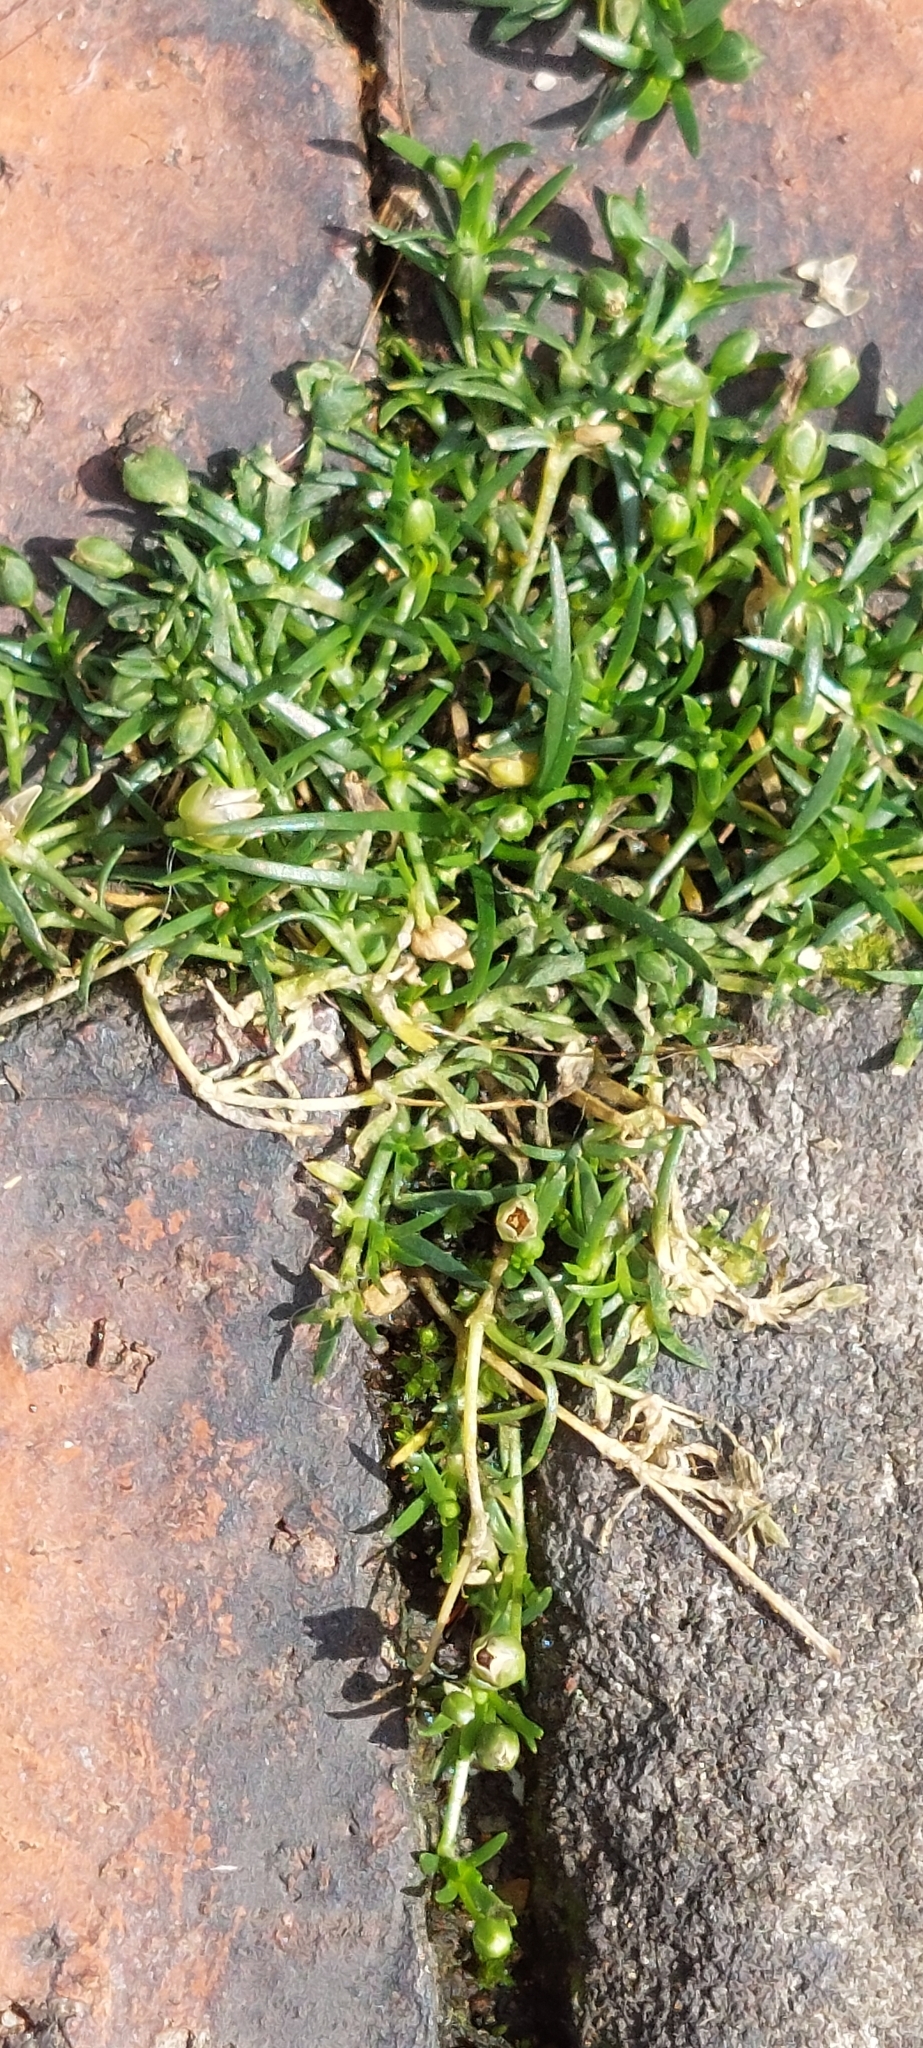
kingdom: Plantae
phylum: Tracheophyta
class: Magnoliopsida
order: Caryophyllales
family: Caryophyllaceae
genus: Sagina
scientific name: Sagina procumbens
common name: Procumbent pearlwort
